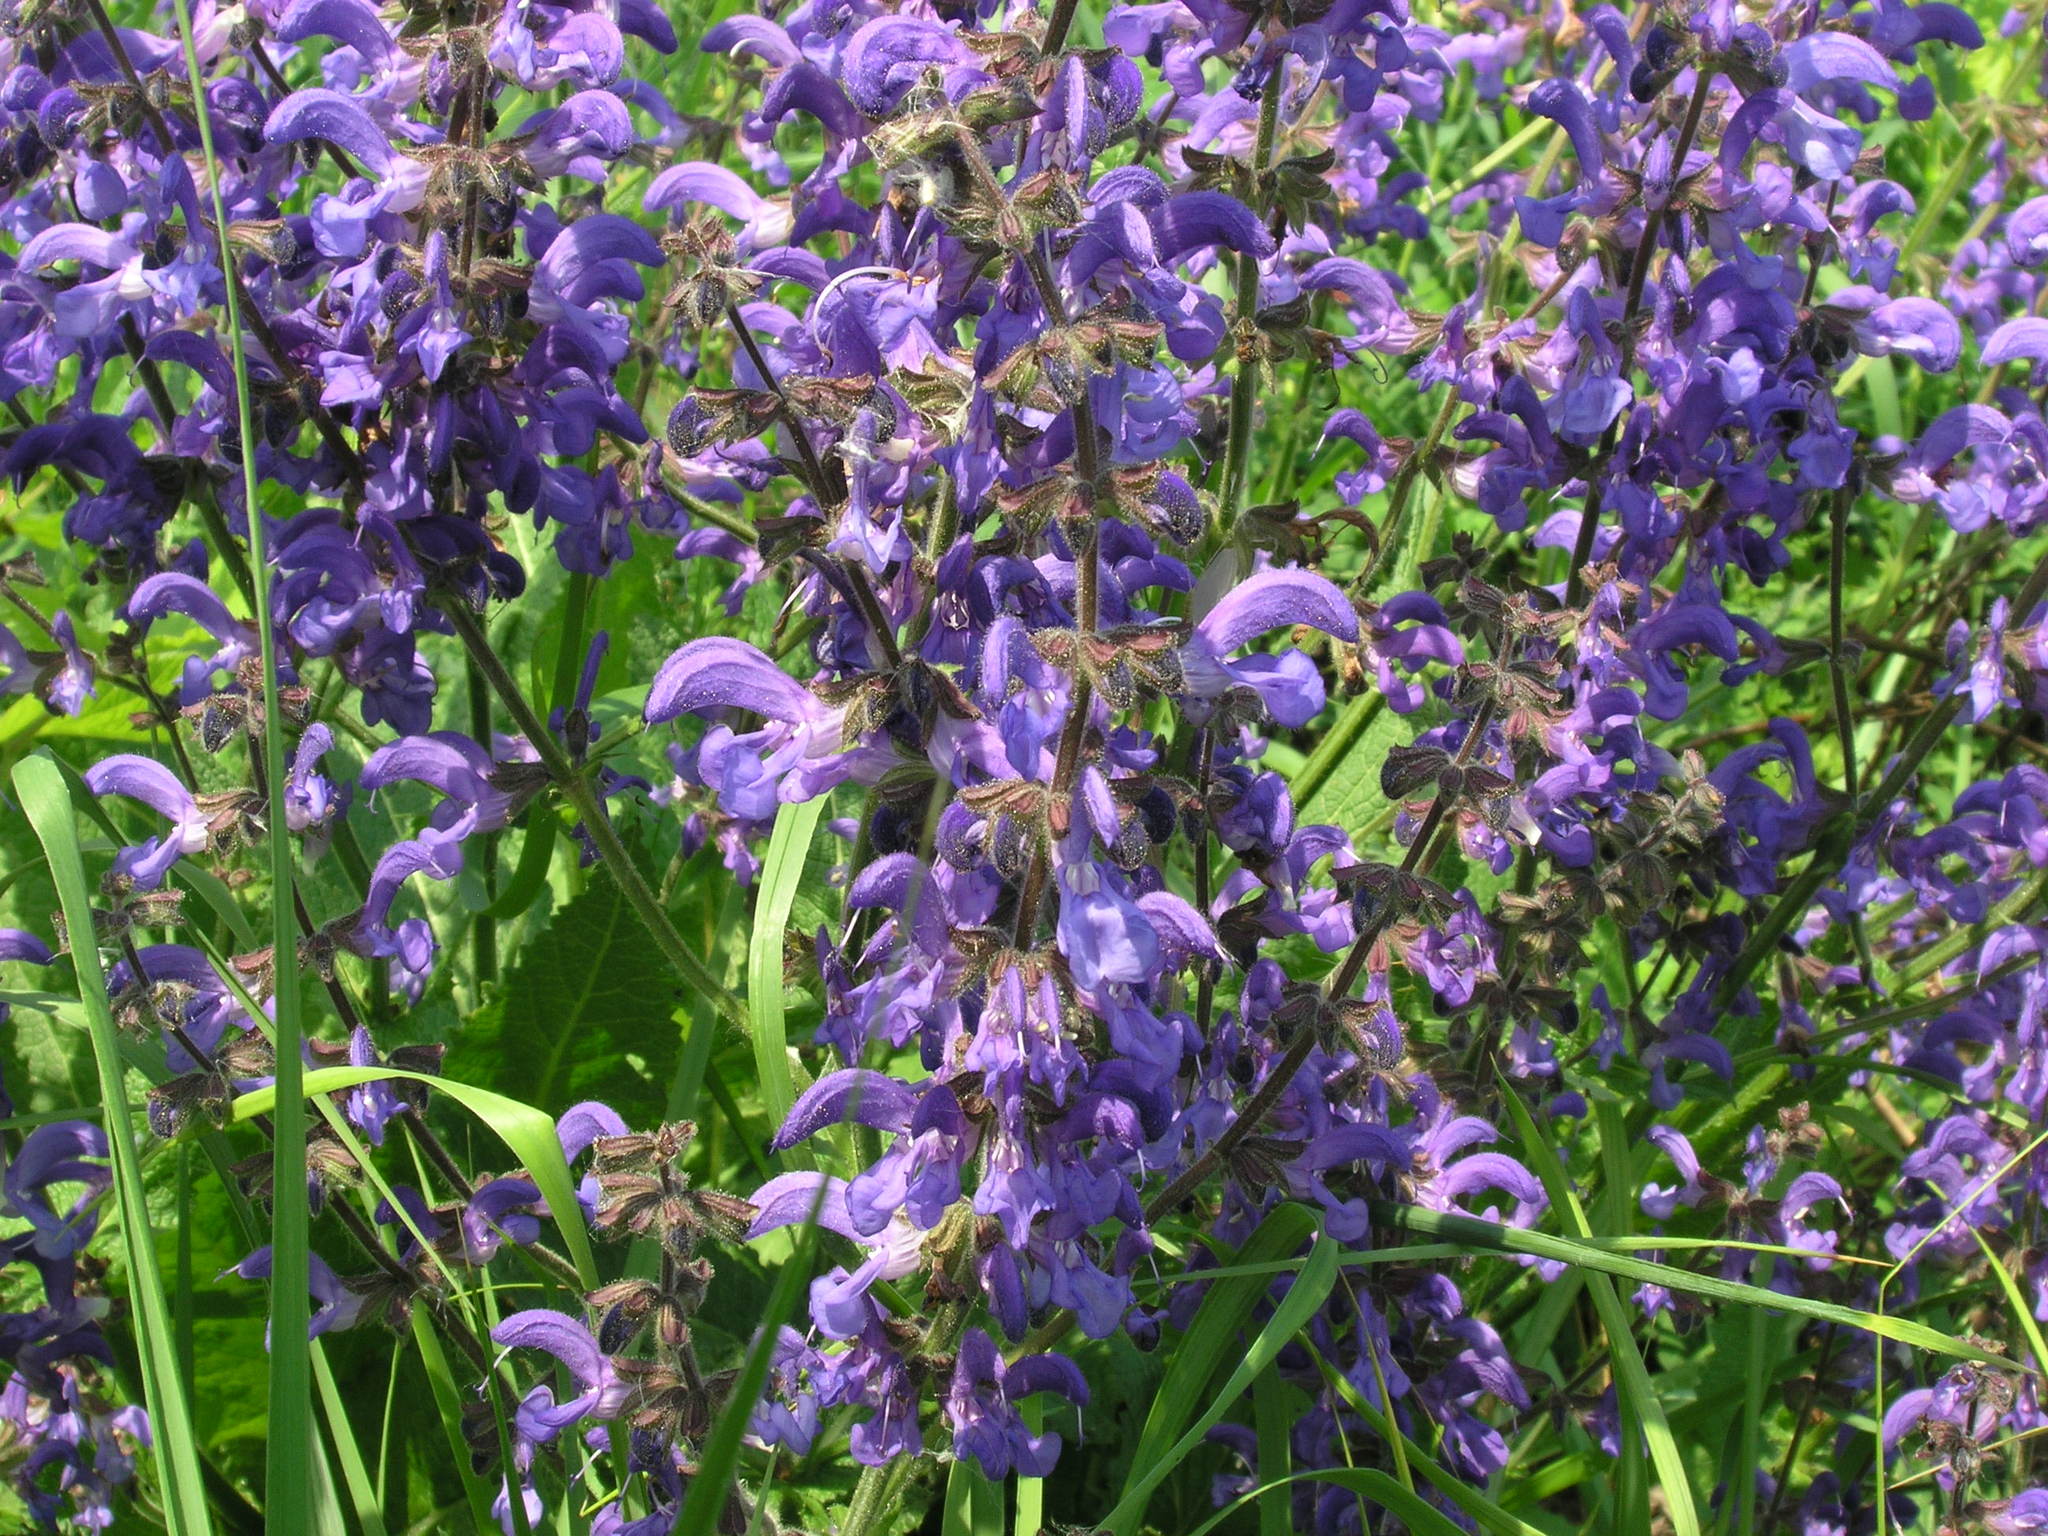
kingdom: Plantae
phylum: Tracheophyta
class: Magnoliopsida
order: Lamiales
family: Lamiaceae
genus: Salvia
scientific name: Salvia pratensis
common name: Meadow sage
